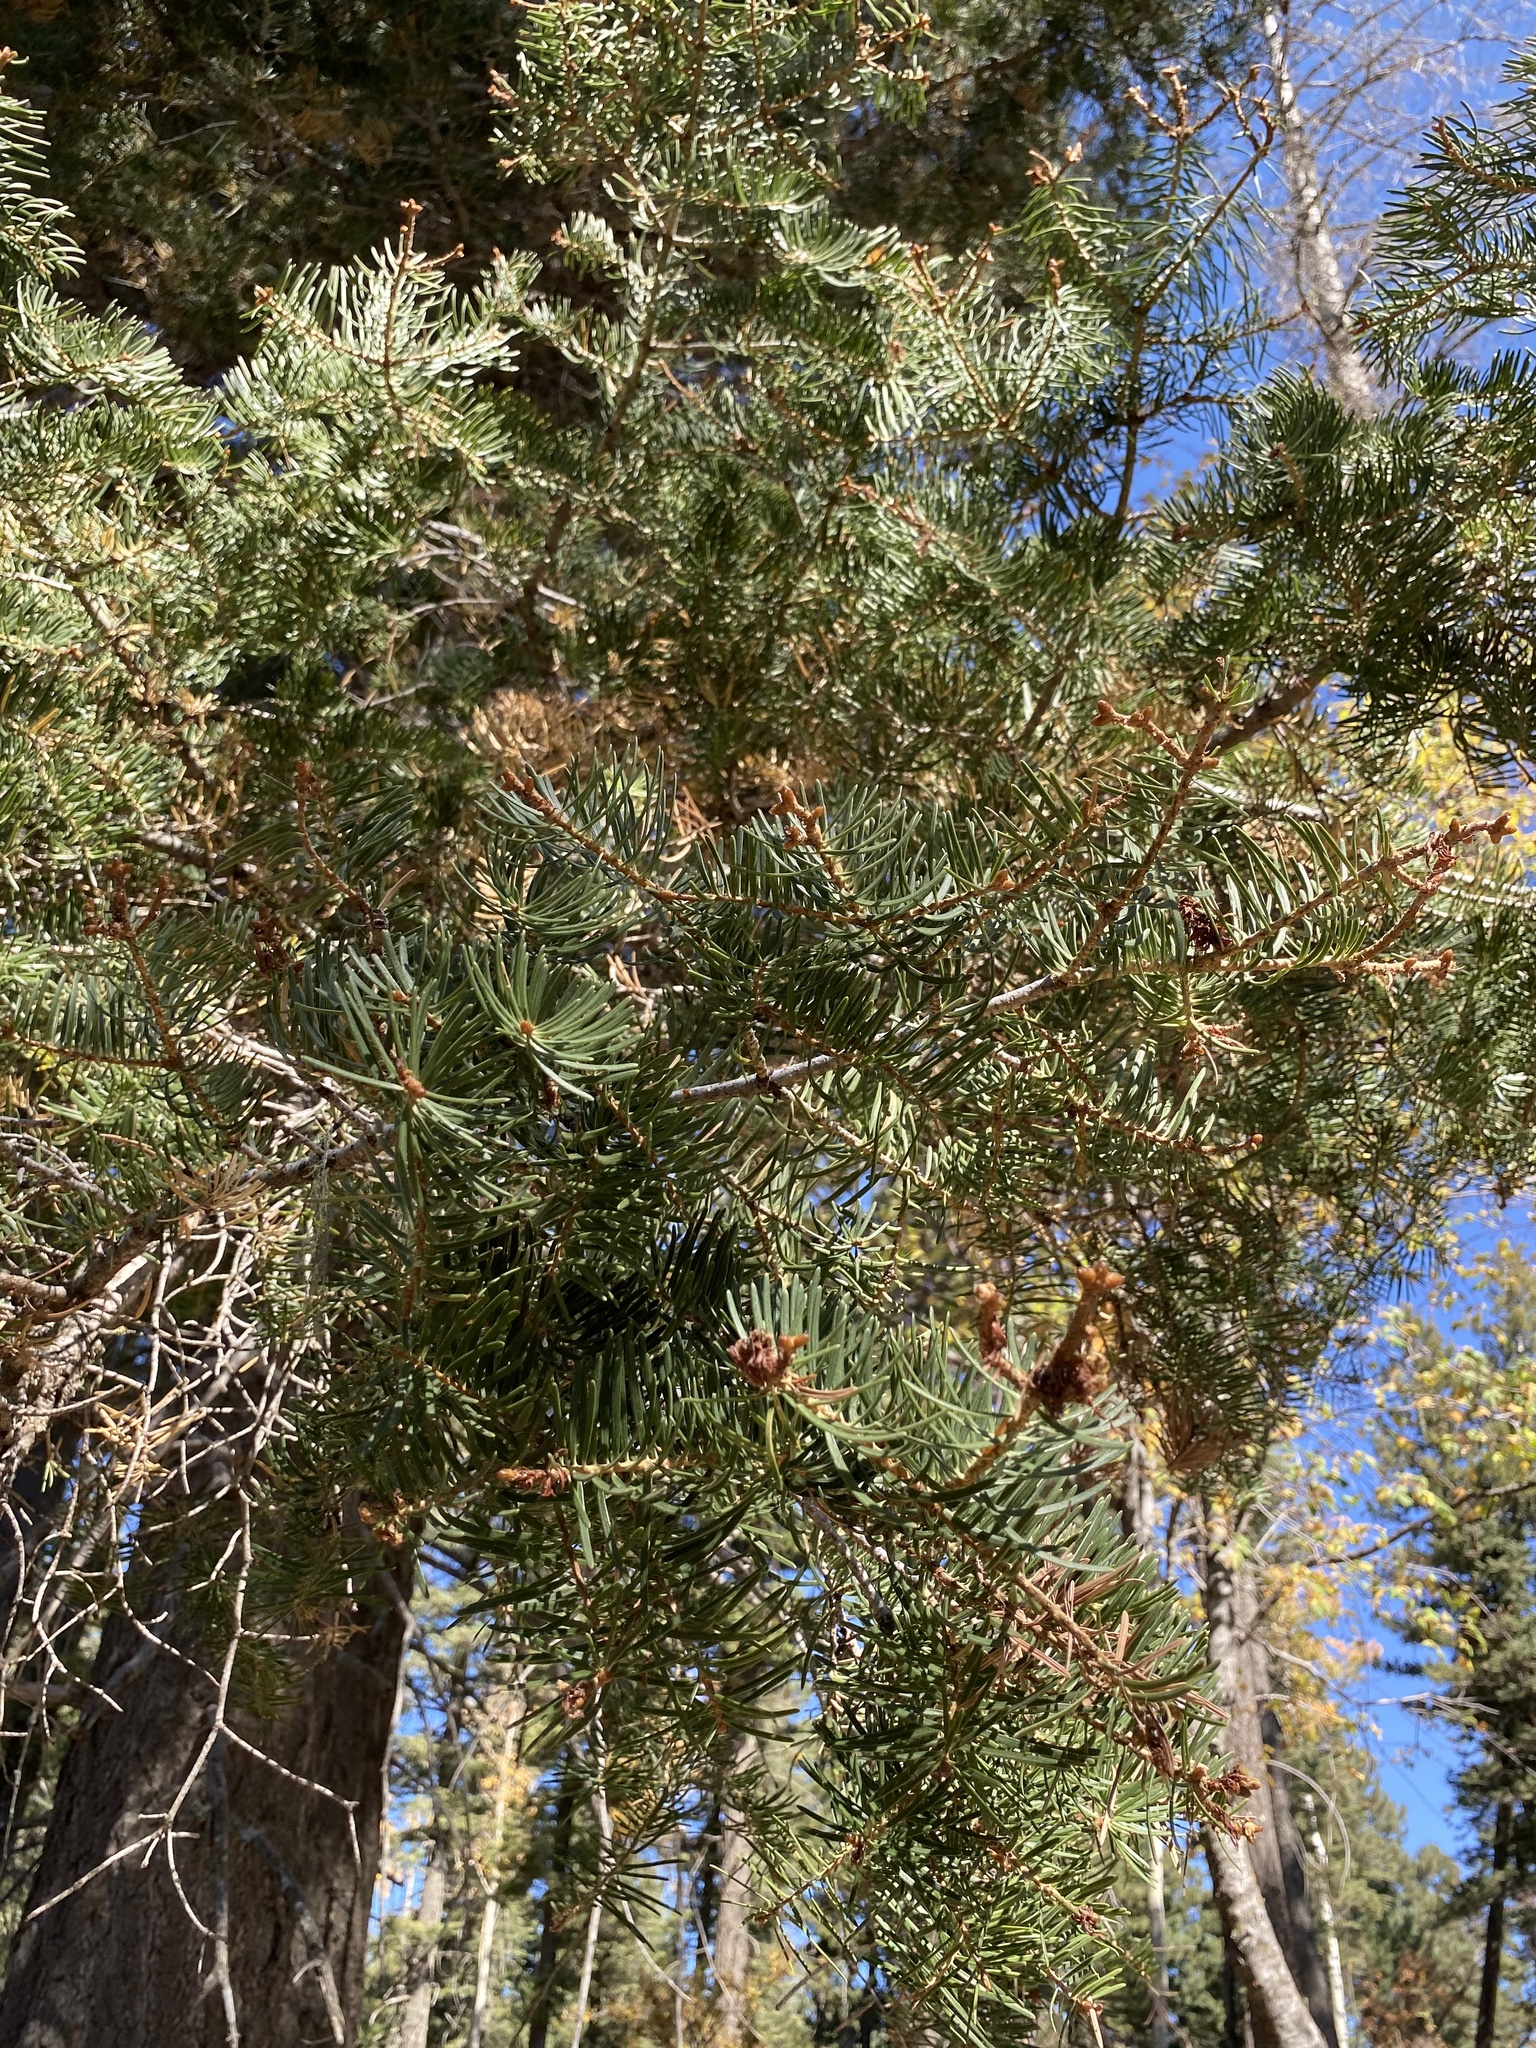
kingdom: Plantae
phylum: Tracheophyta
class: Pinopsida
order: Pinales
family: Pinaceae
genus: Abies
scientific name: Abies concolor
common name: Colorado fir
